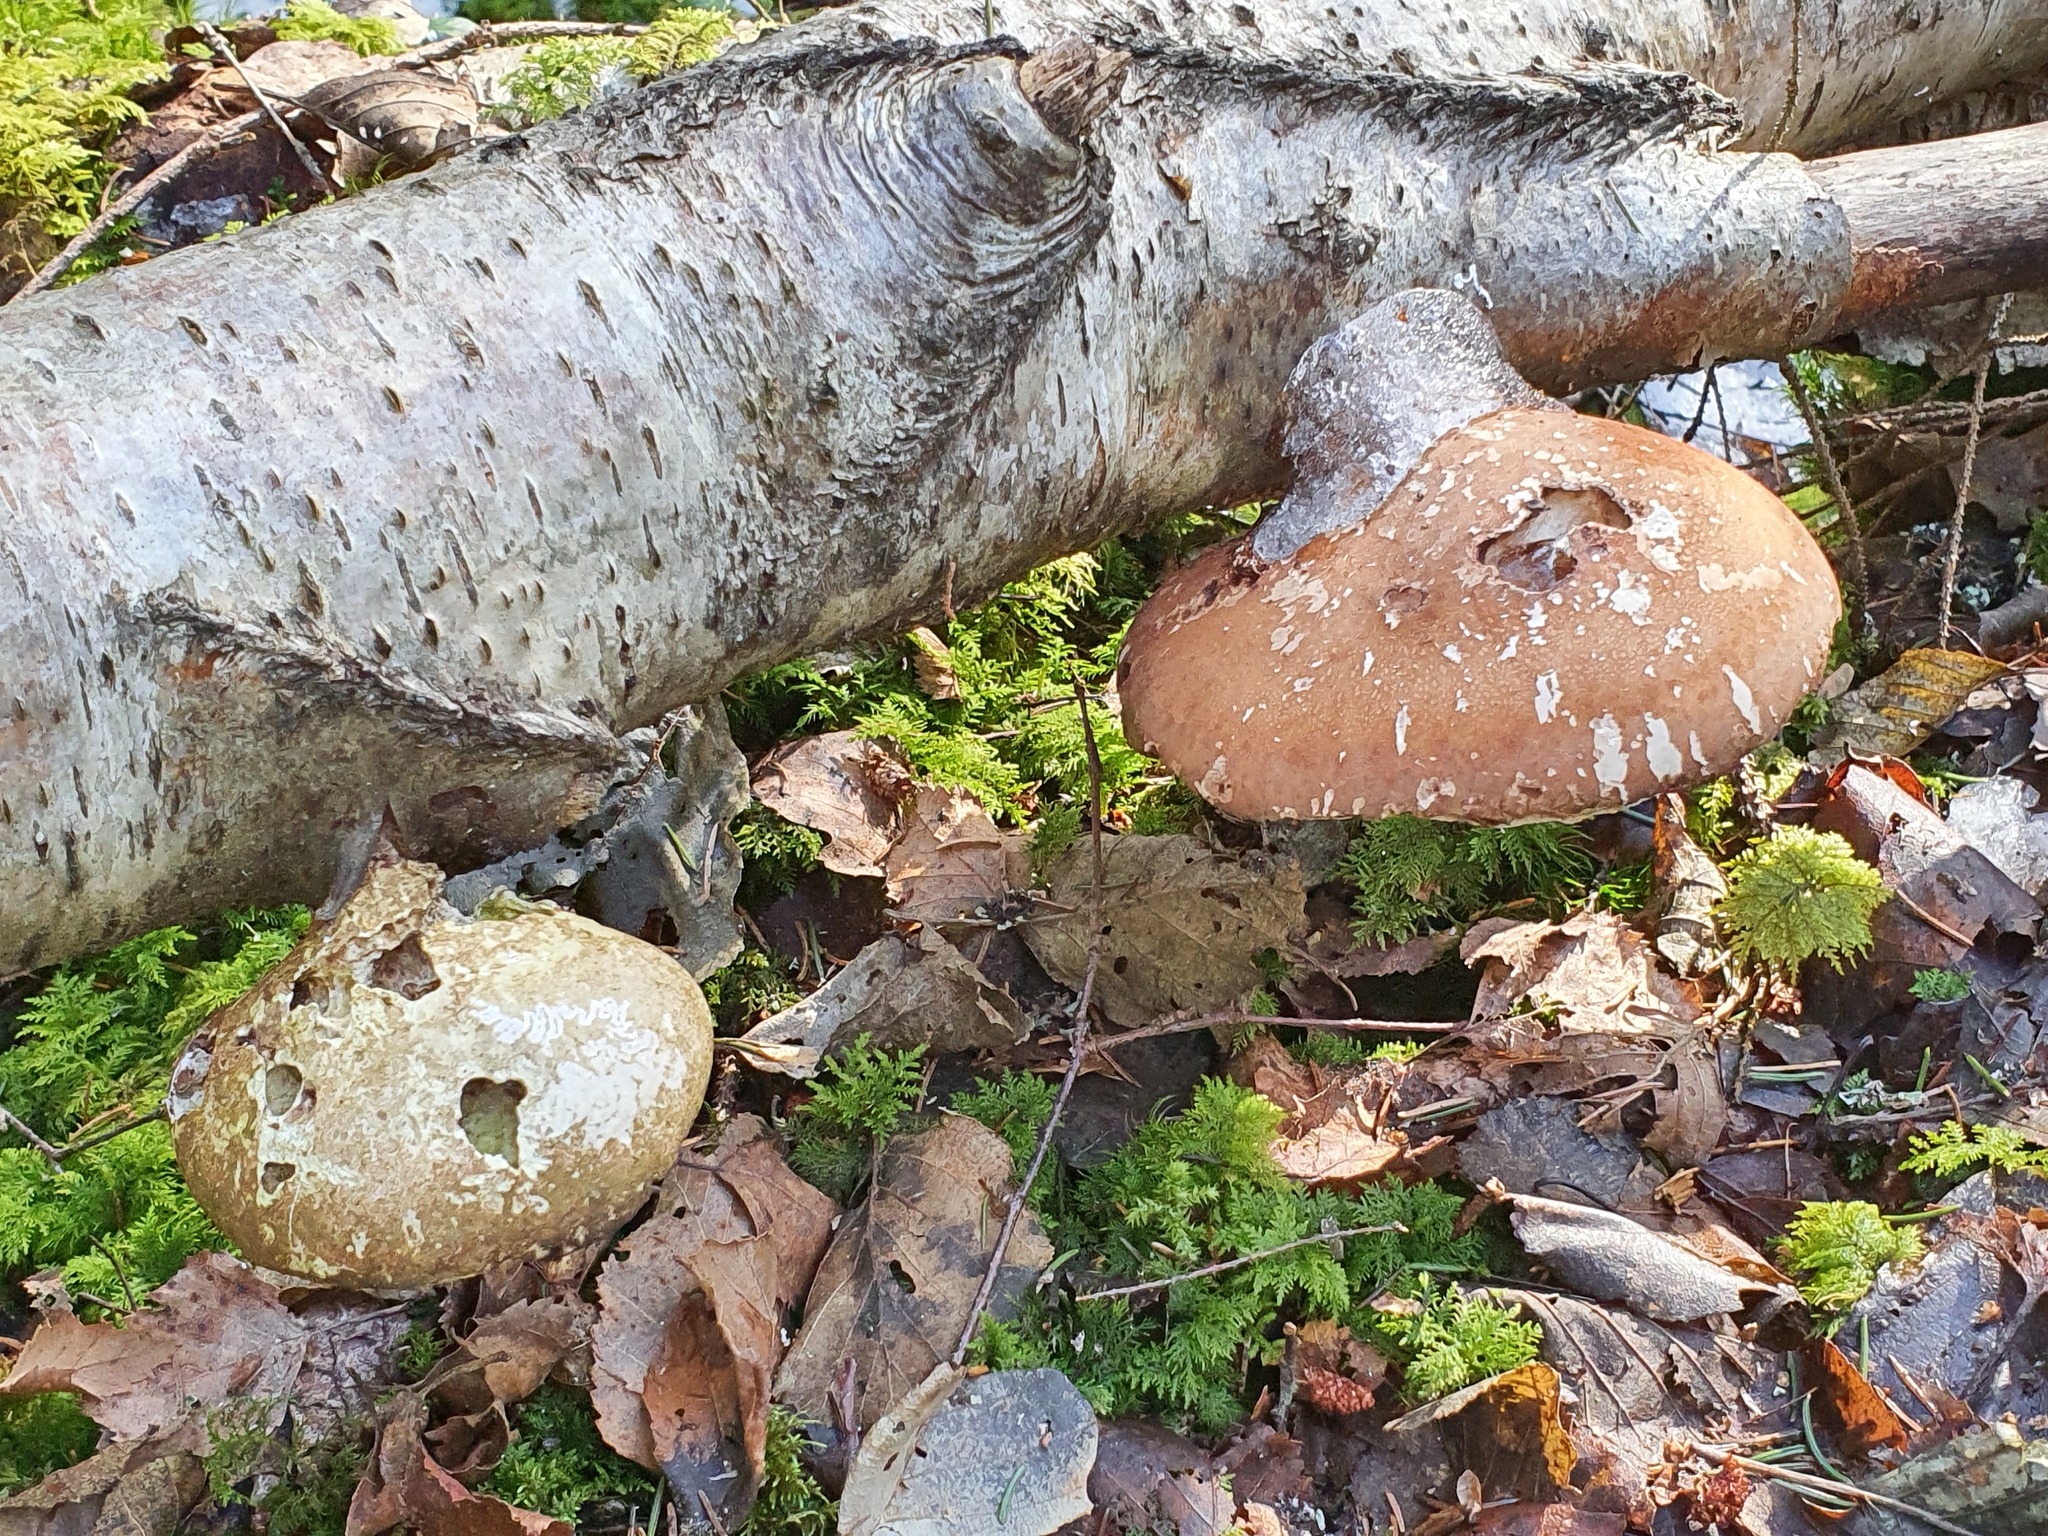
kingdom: Fungi
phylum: Basidiomycota
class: Agaricomycetes
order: Polyporales
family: Fomitopsidaceae
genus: Fomitopsis
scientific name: Fomitopsis betulina
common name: Birch polypore
